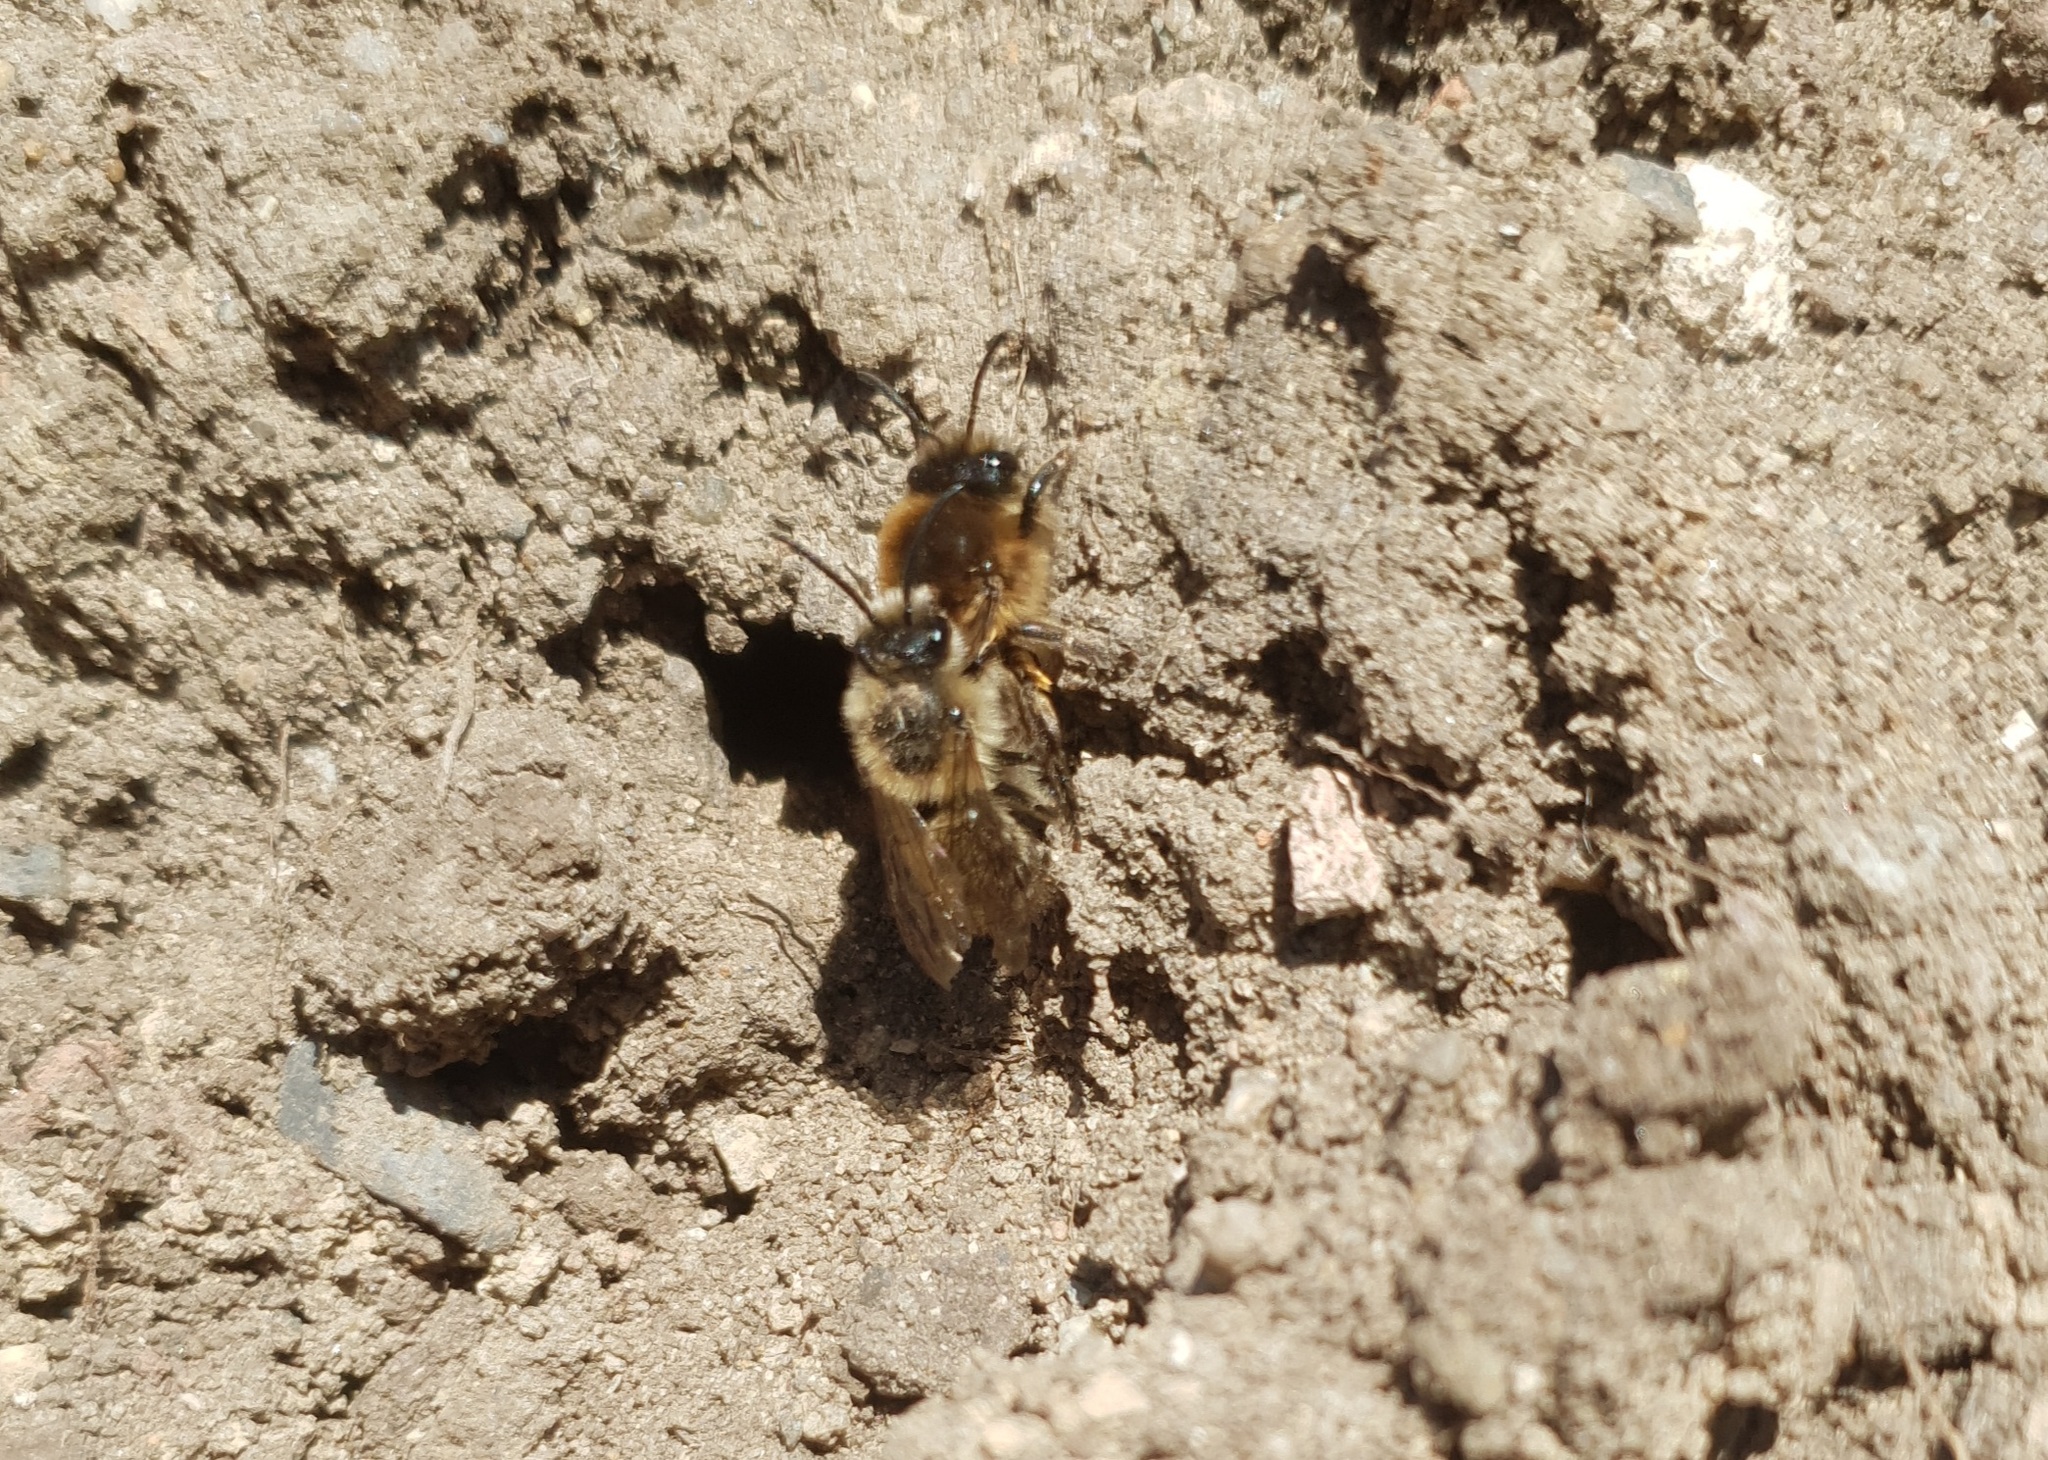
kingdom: Animalia
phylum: Arthropoda
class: Insecta
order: Hymenoptera
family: Colletidae
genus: Colletes
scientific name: Colletes cunicularius
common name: Early colletes
